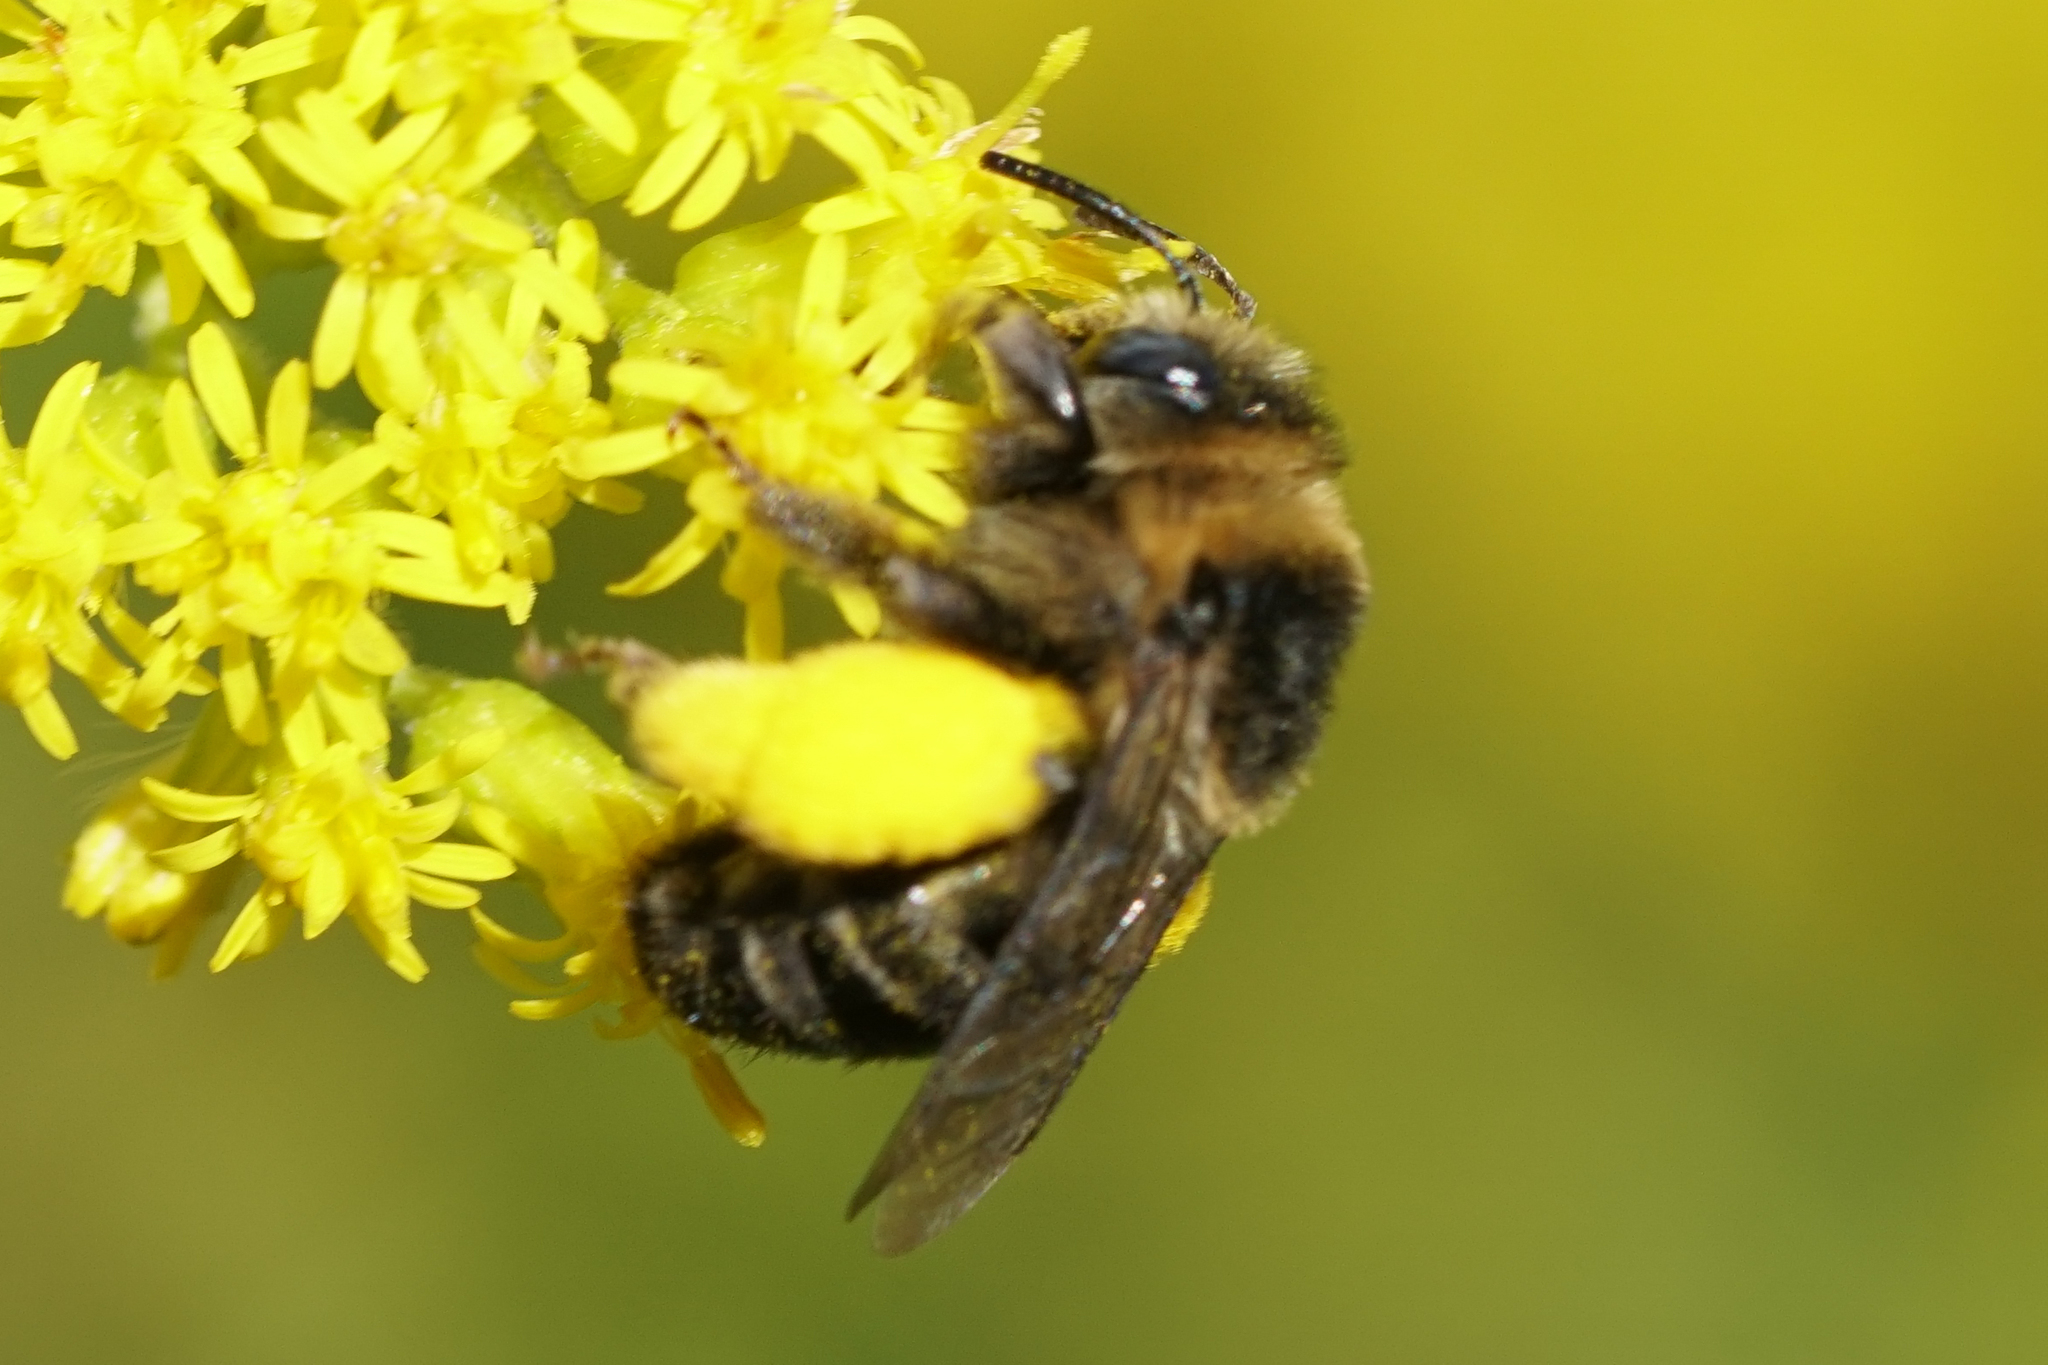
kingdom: Animalia
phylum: Arthropoda
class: Insecta
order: Hymenoptera
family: Apidae
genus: Melissodes
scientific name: Melissodes druriellus
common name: Drury's long-horned bee
